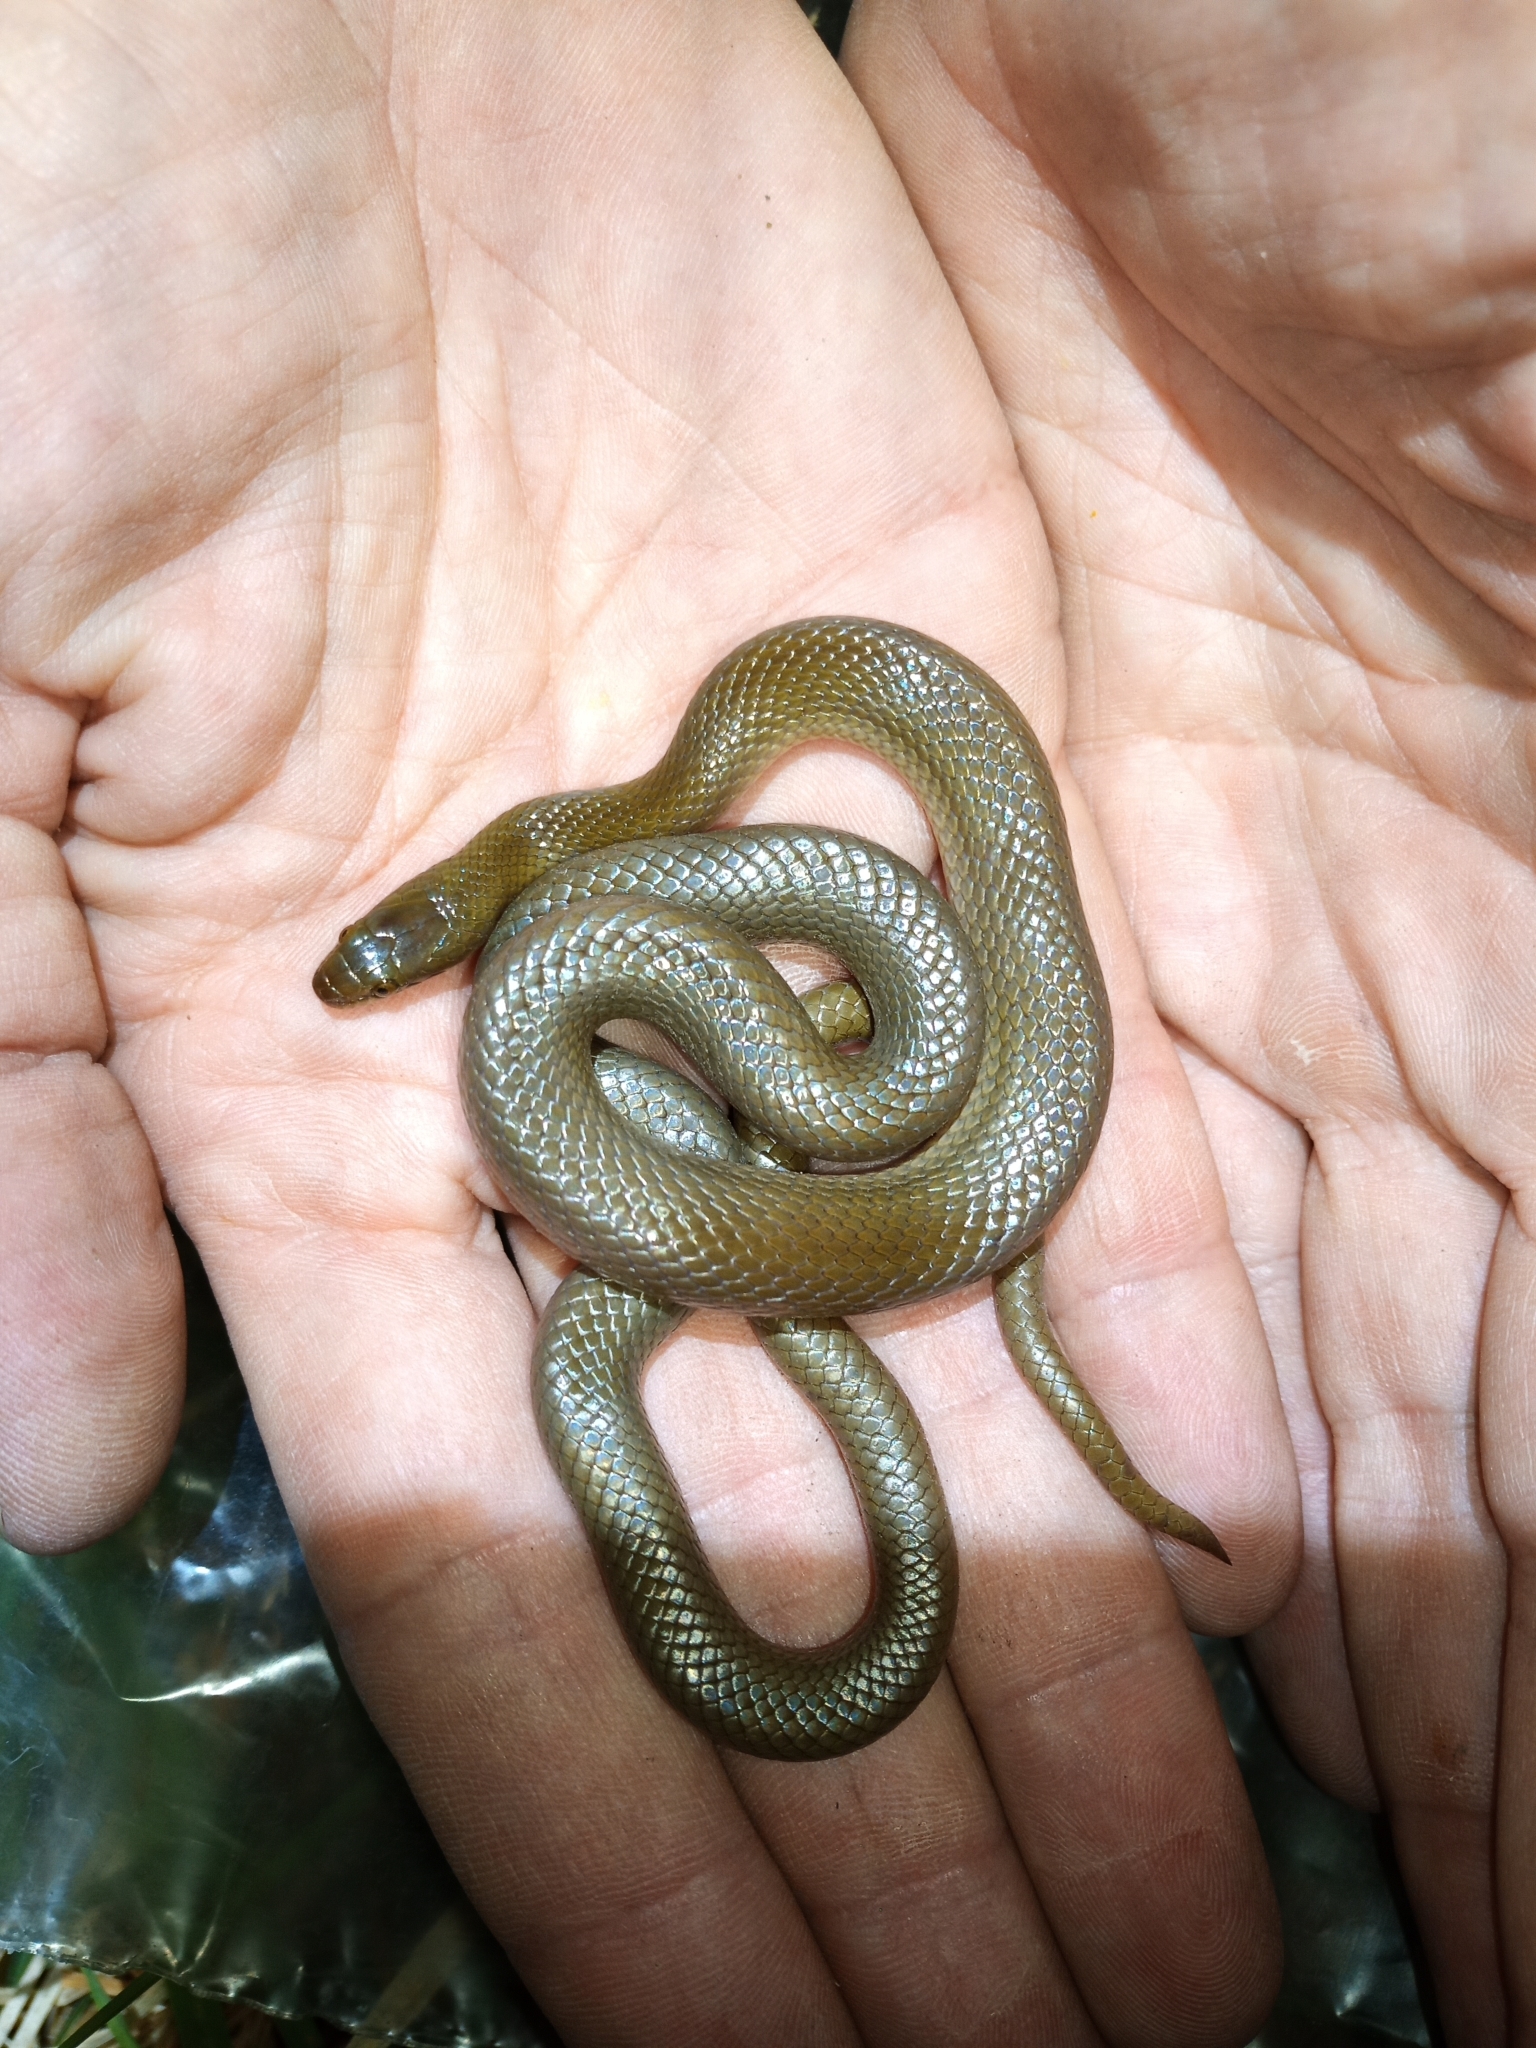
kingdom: Animalia
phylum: Chordata
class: Squamata
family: Lamprophiidae
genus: Lycodonomorphus
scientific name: Lycodonomorphus rufulus
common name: Brown water snake
